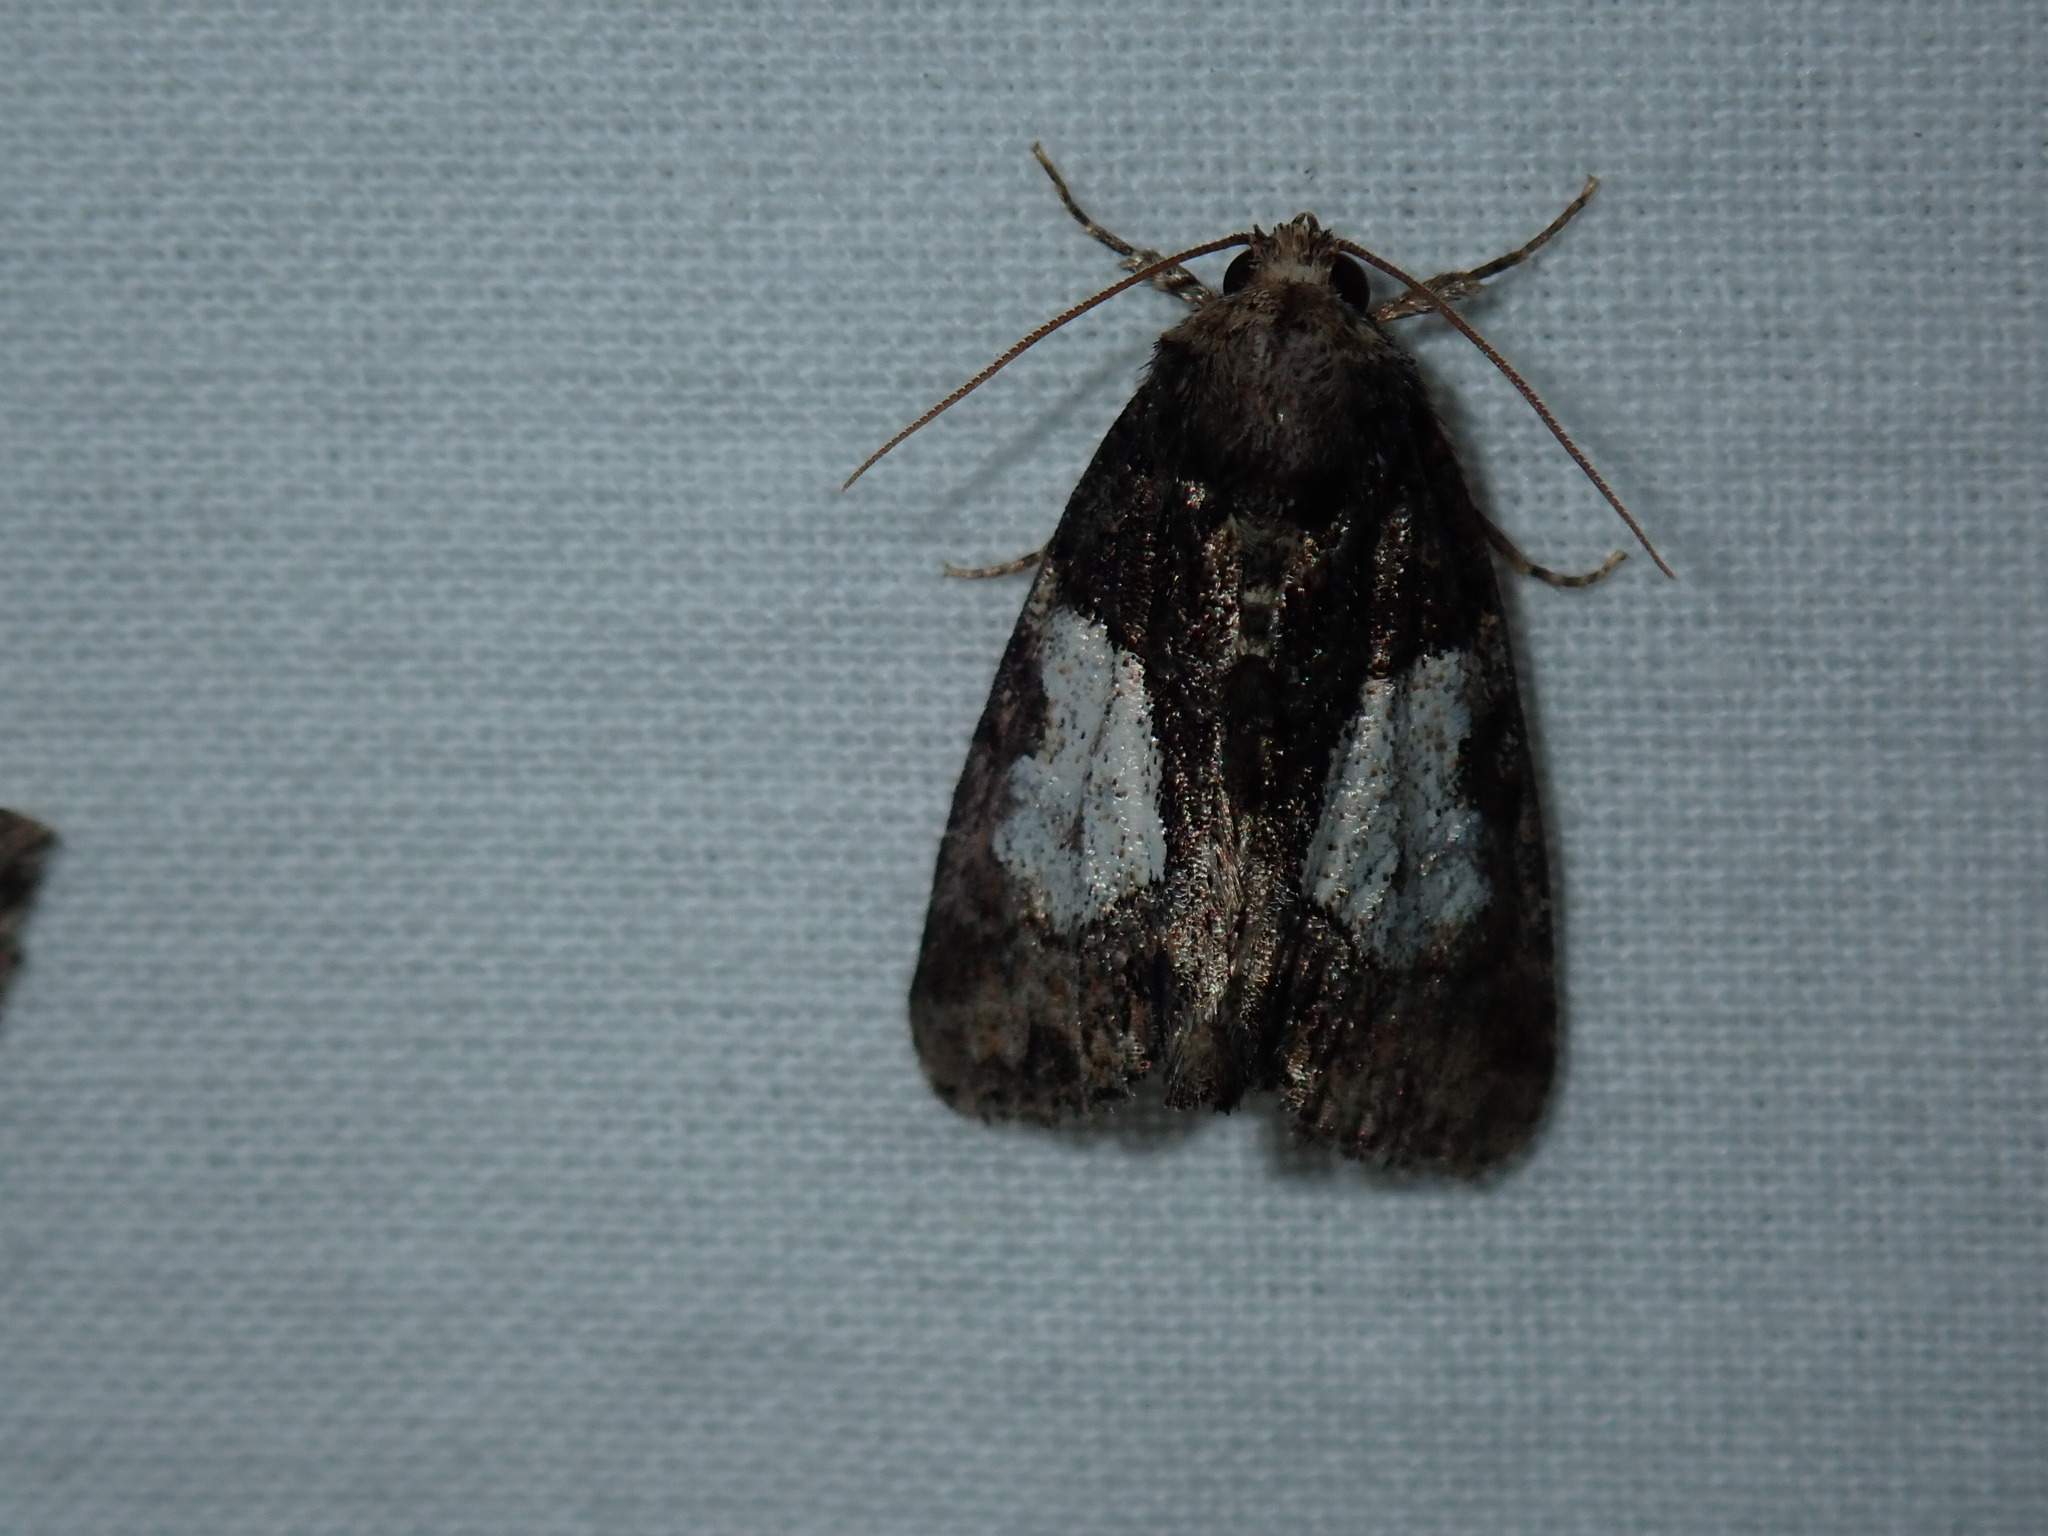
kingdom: Animalia
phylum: Arthropoda
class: Insecta
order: Lepidoptera
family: Noctuidae
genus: Chytonix
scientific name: Chytonix palliatricula
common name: Cloaked marvel
